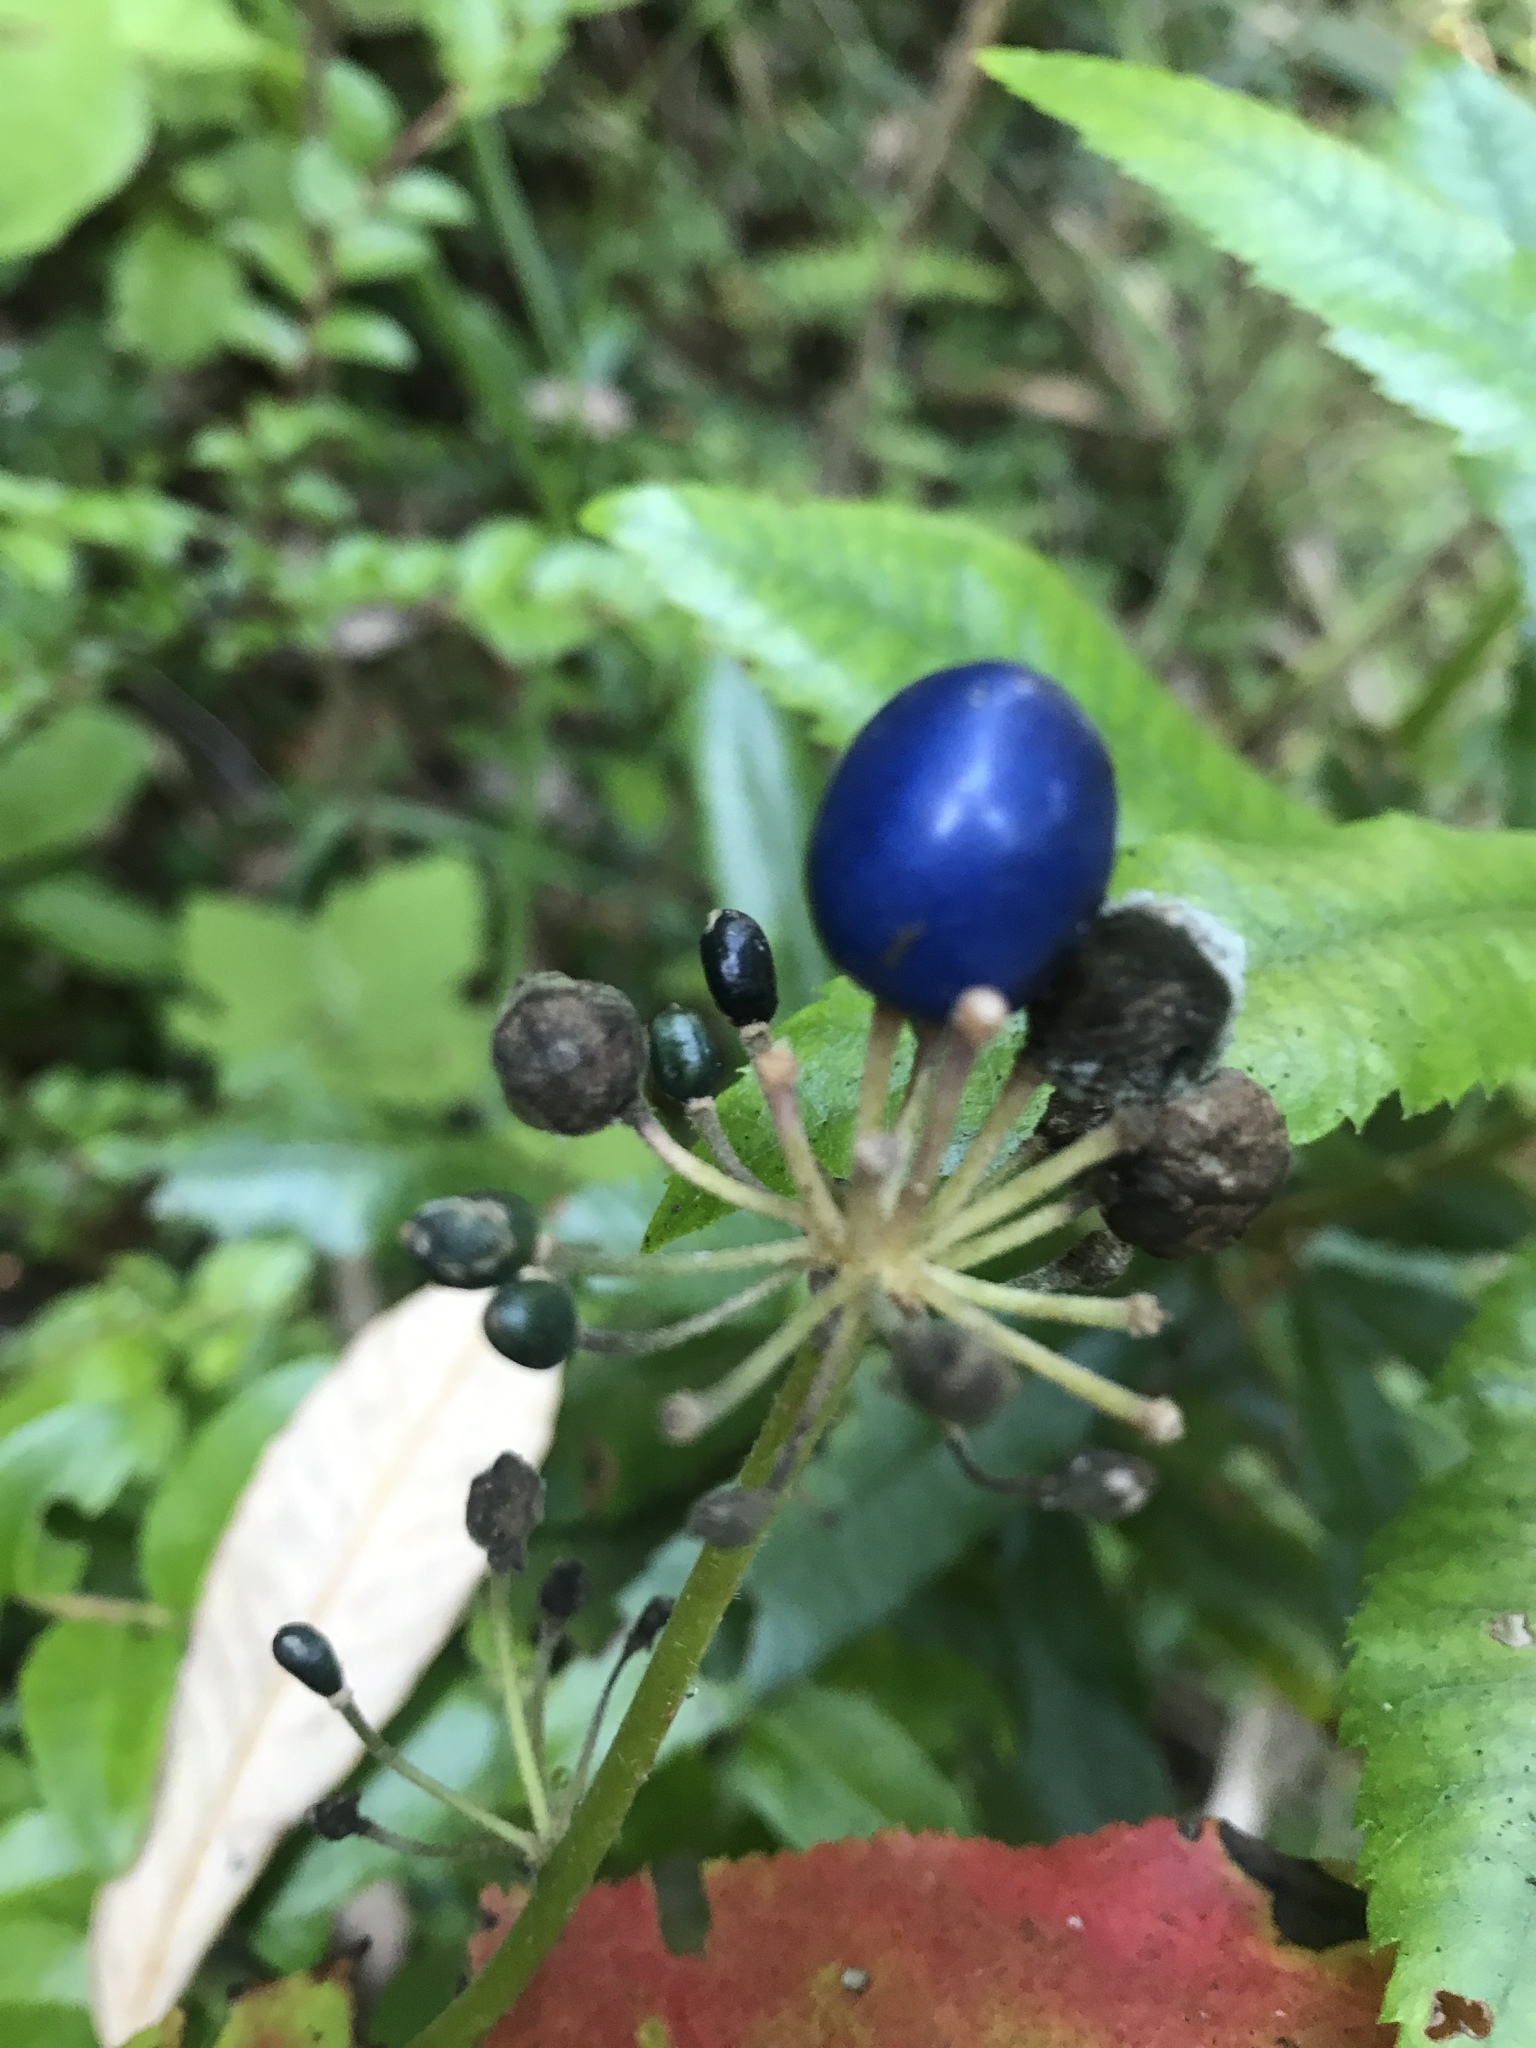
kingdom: Plantae
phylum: Tracheophyta
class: Liliopsida
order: Liliales
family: Liliaceae
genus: Clintonia
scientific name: Clintonia andrewsiana
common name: Red clintonia
